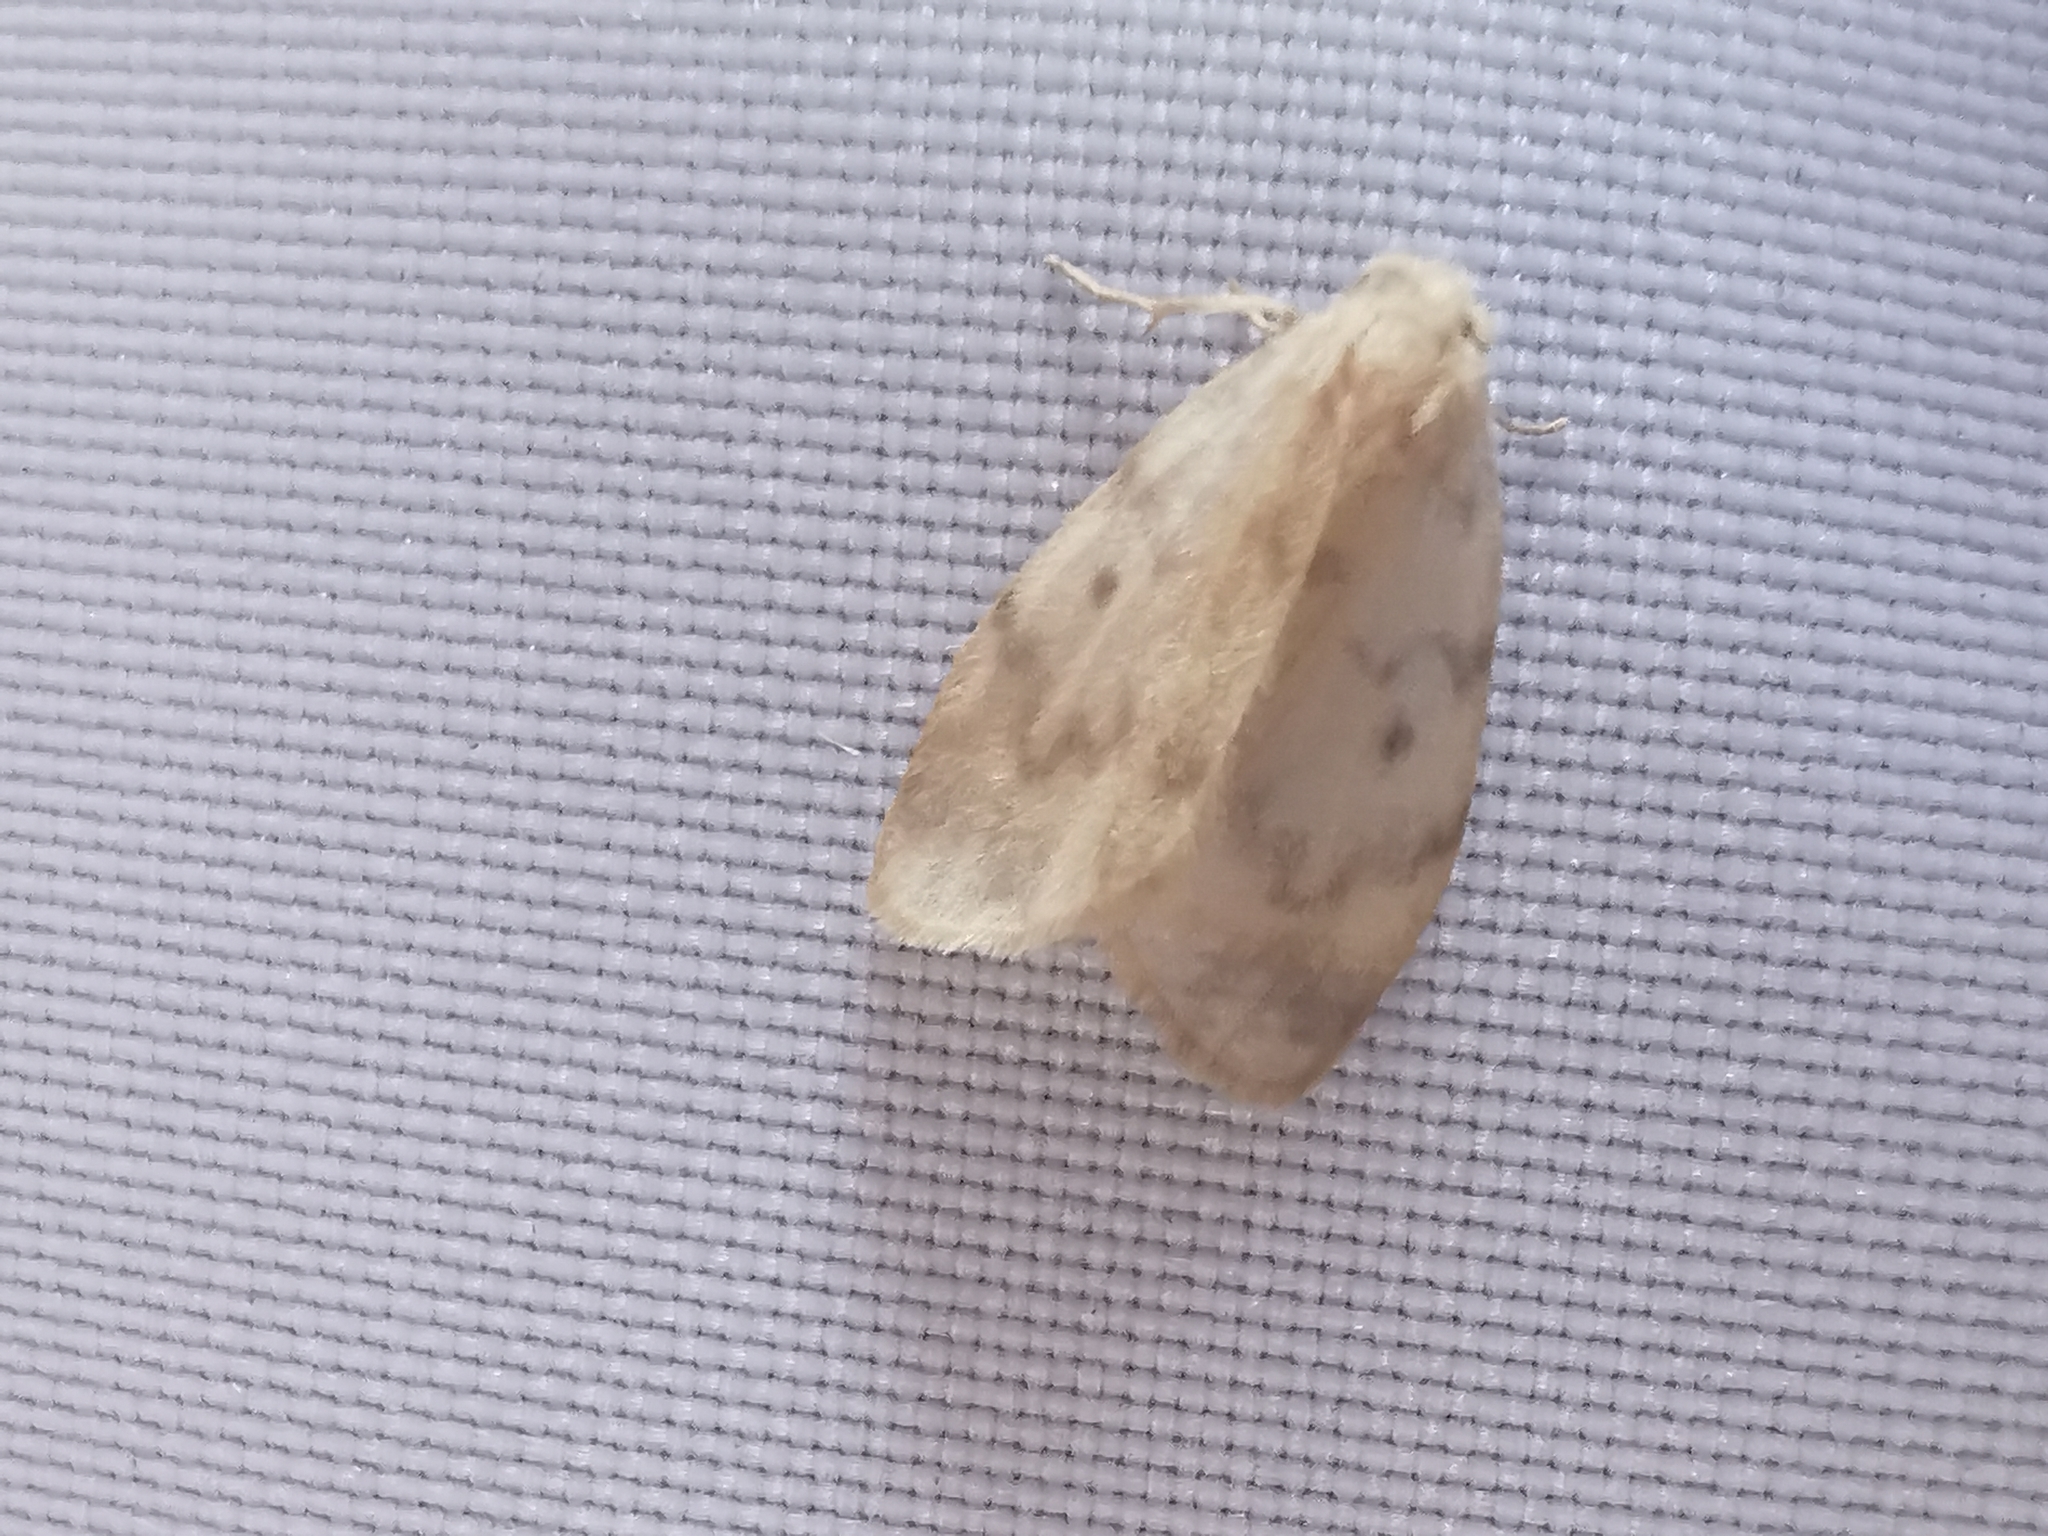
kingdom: Animalia
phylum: Arthropoda
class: Insecta
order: Lepidoptera
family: Erebidae
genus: Nudaria
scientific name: Nudaria mundana
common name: Muslin footman
